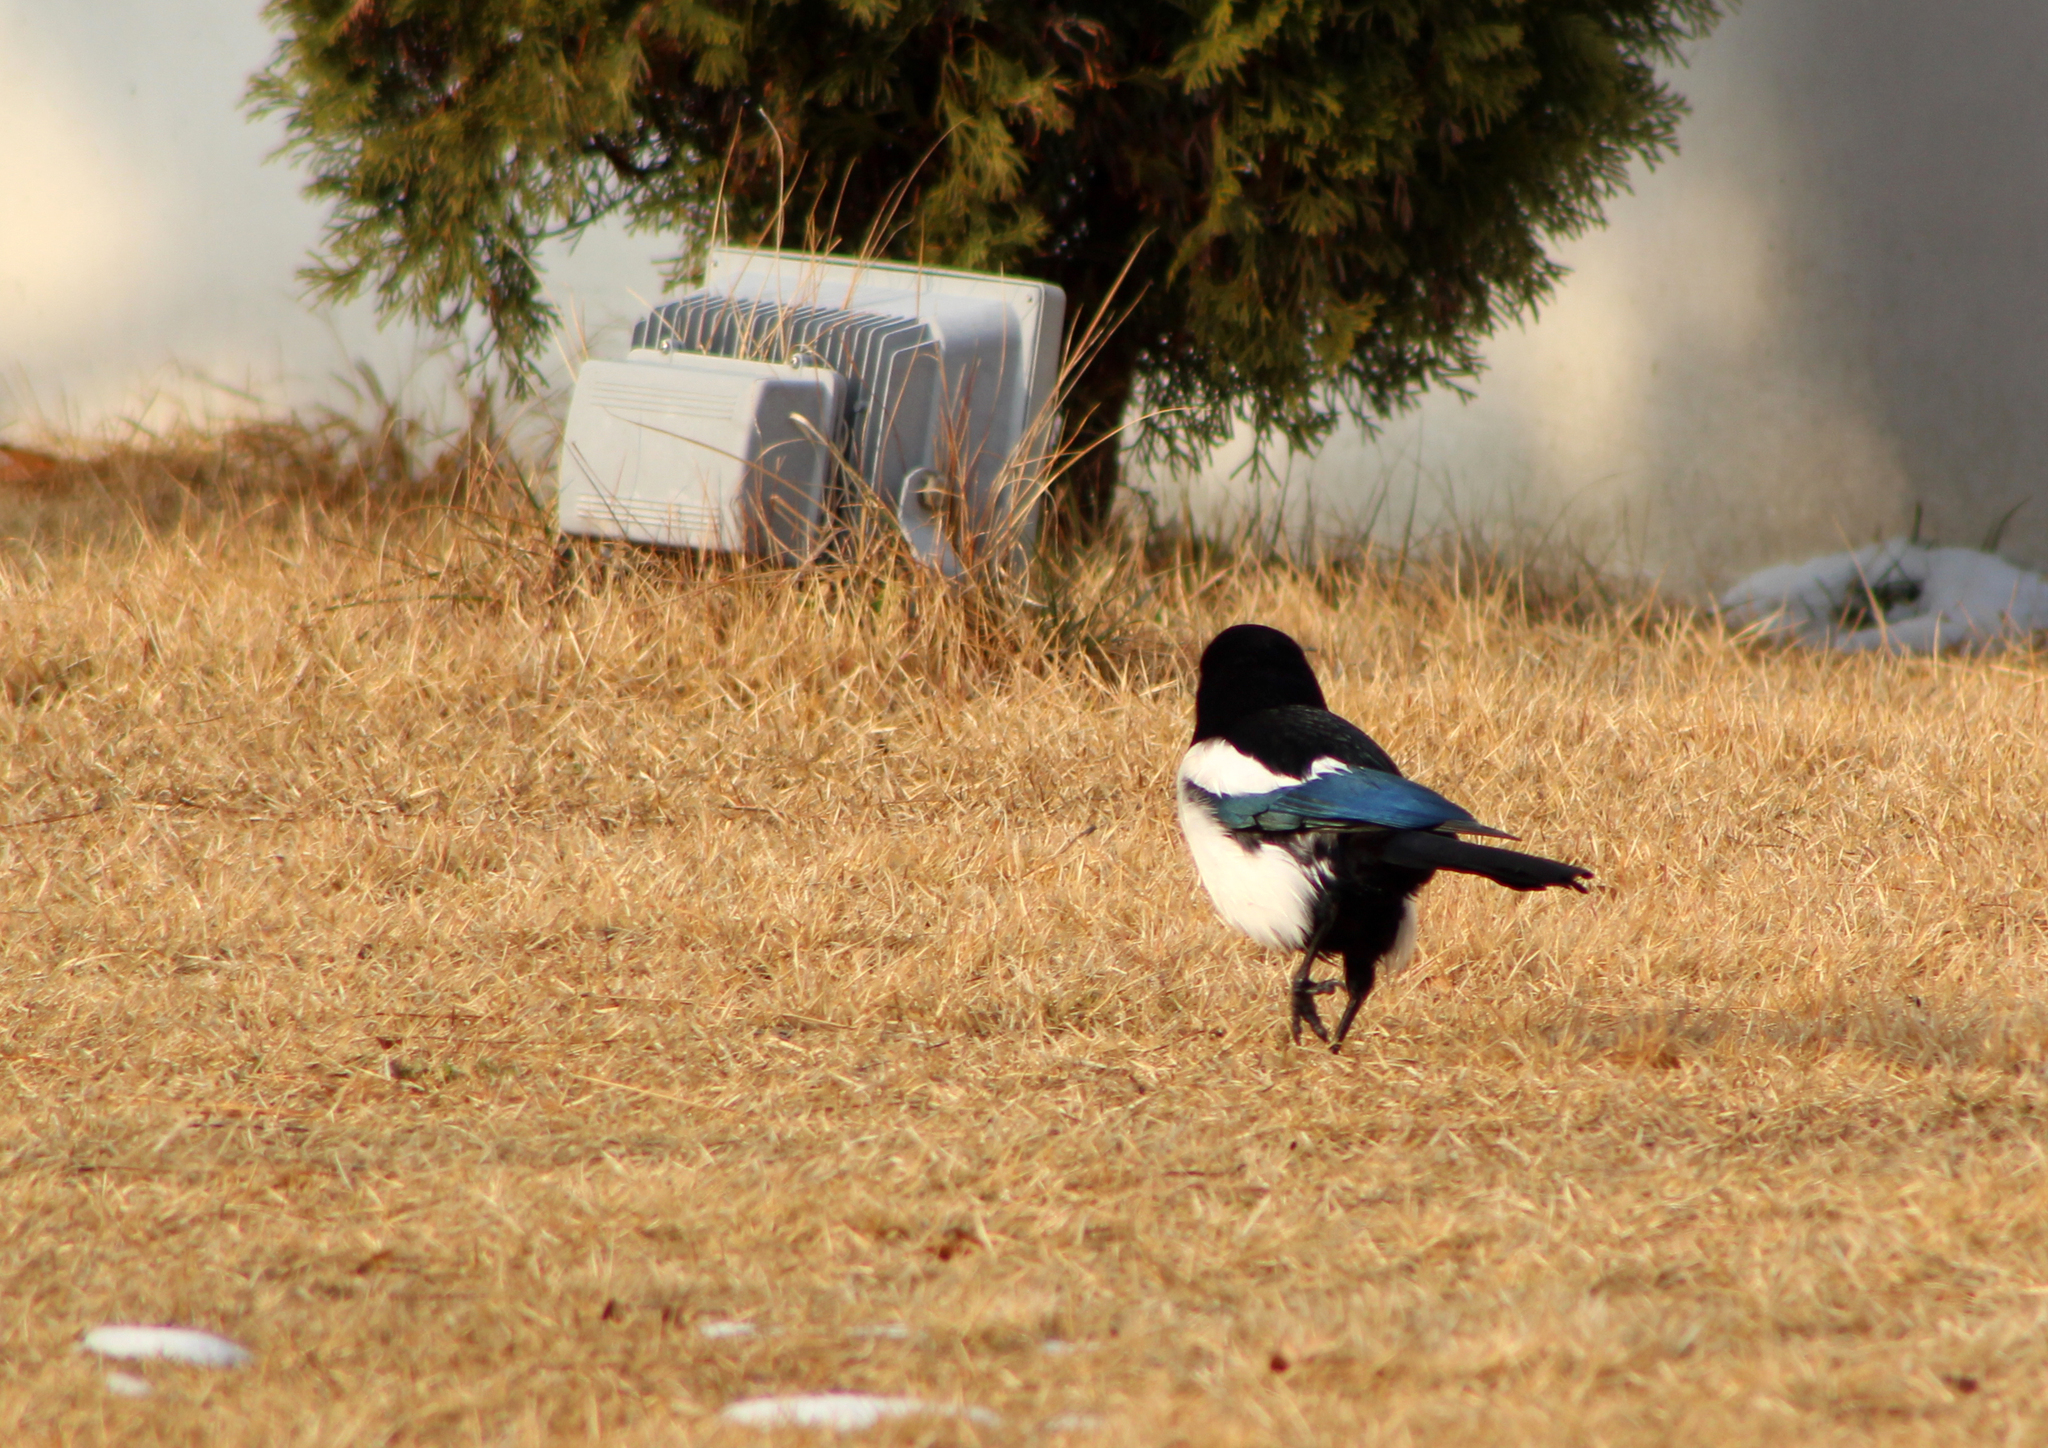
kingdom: Animalia
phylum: Chordata
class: Aves
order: Passeriformes
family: Corvidae
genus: Pica
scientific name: Pica serica
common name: Oriental magpie
